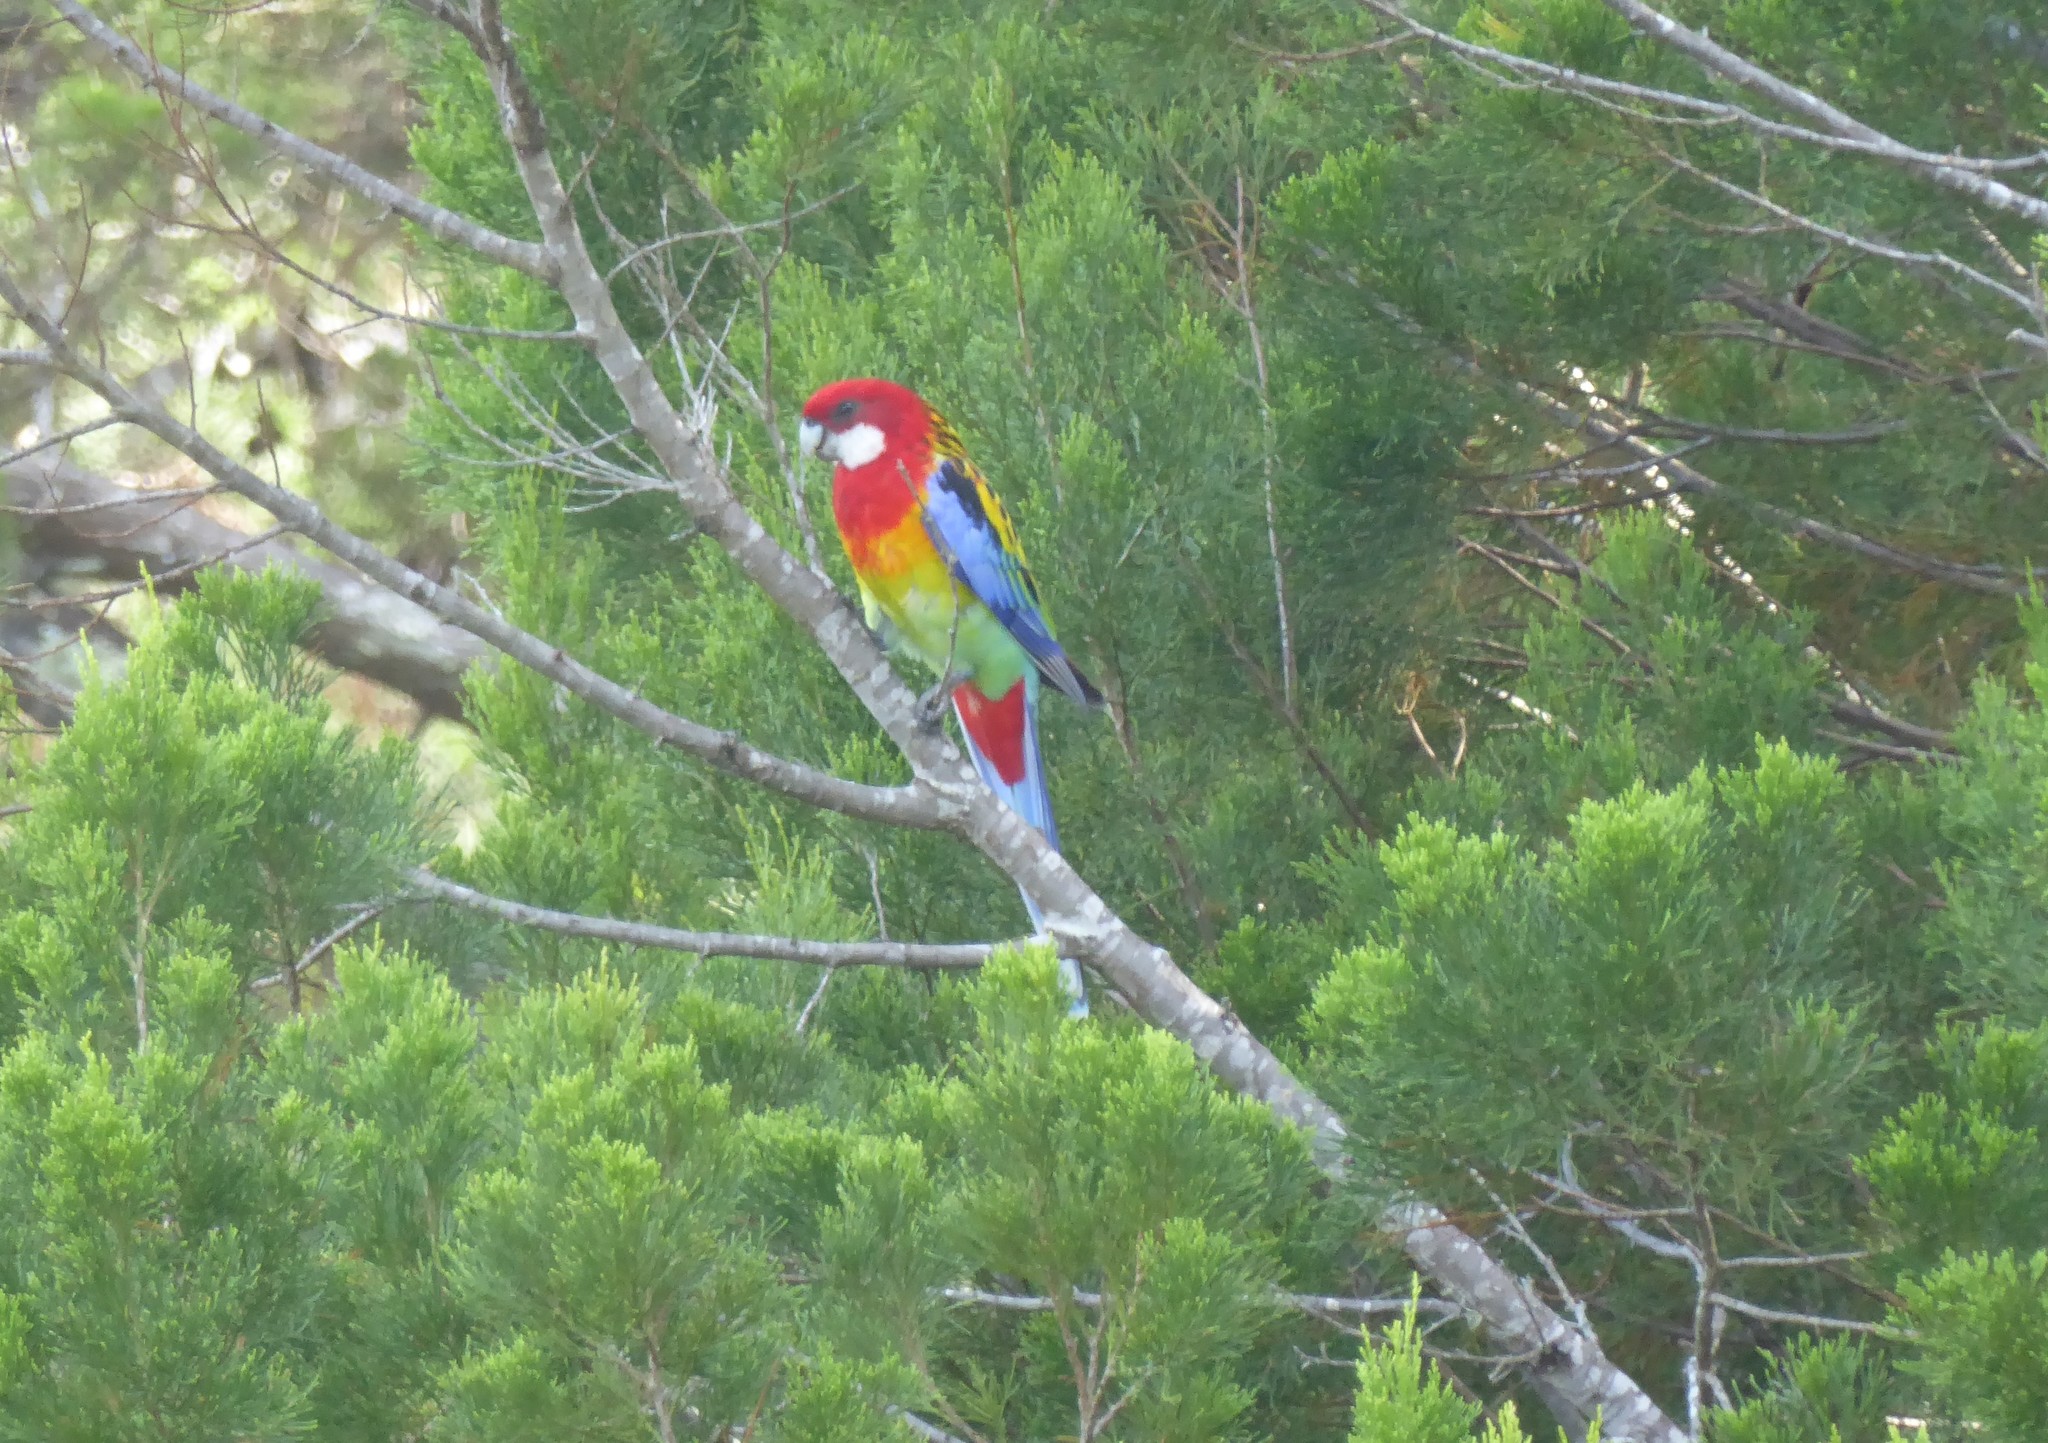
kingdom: Animalia
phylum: Chordata
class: Aves
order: Psittaciformes
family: Psittacidae
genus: Platycercus
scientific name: Platycercus eximius
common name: Eastern rosella
